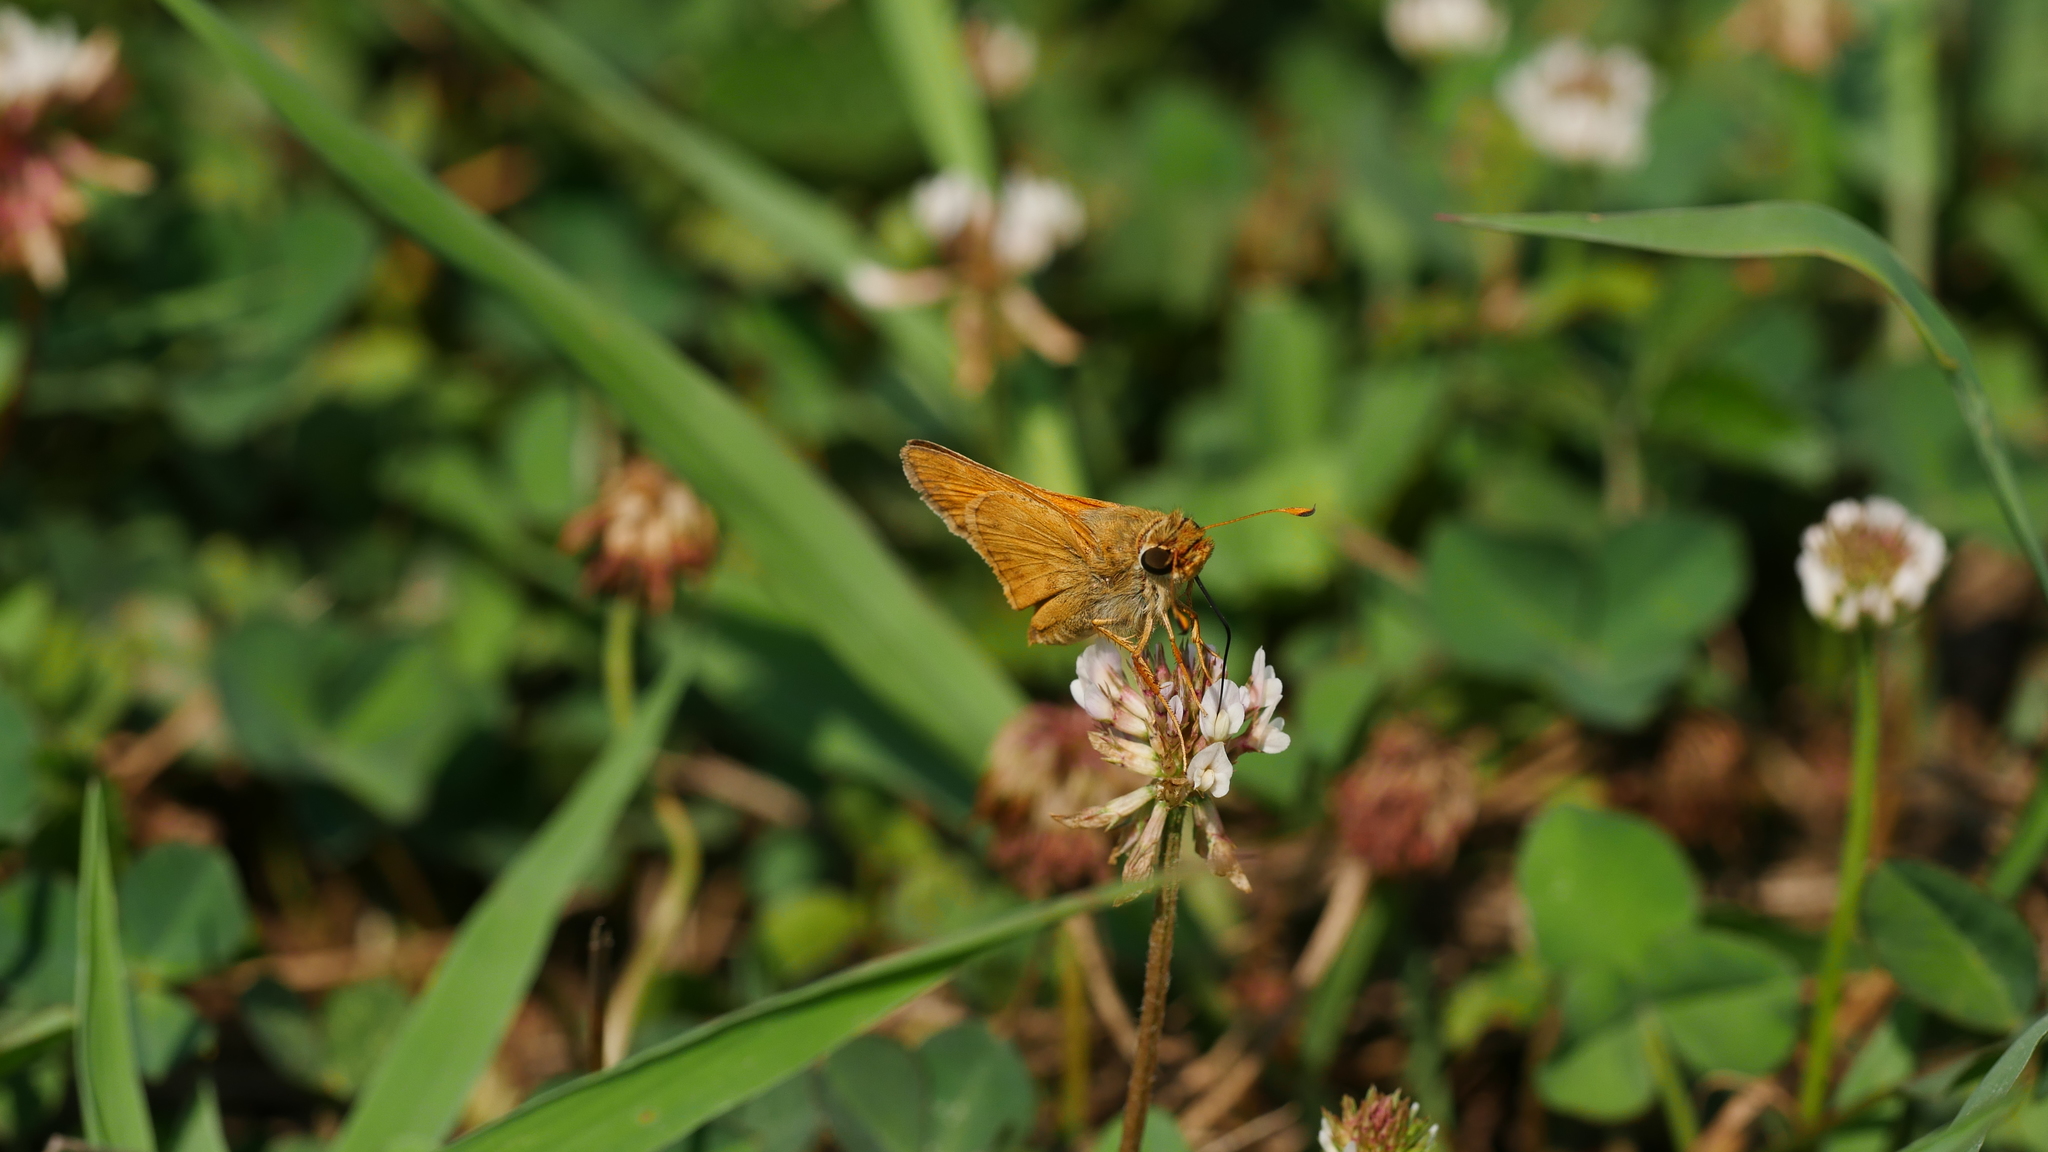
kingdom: Animalia
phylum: Arthropoda
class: Insecta
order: Lepidoptera
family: Hesperiidae
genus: Atalopedes
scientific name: Atalopedes
